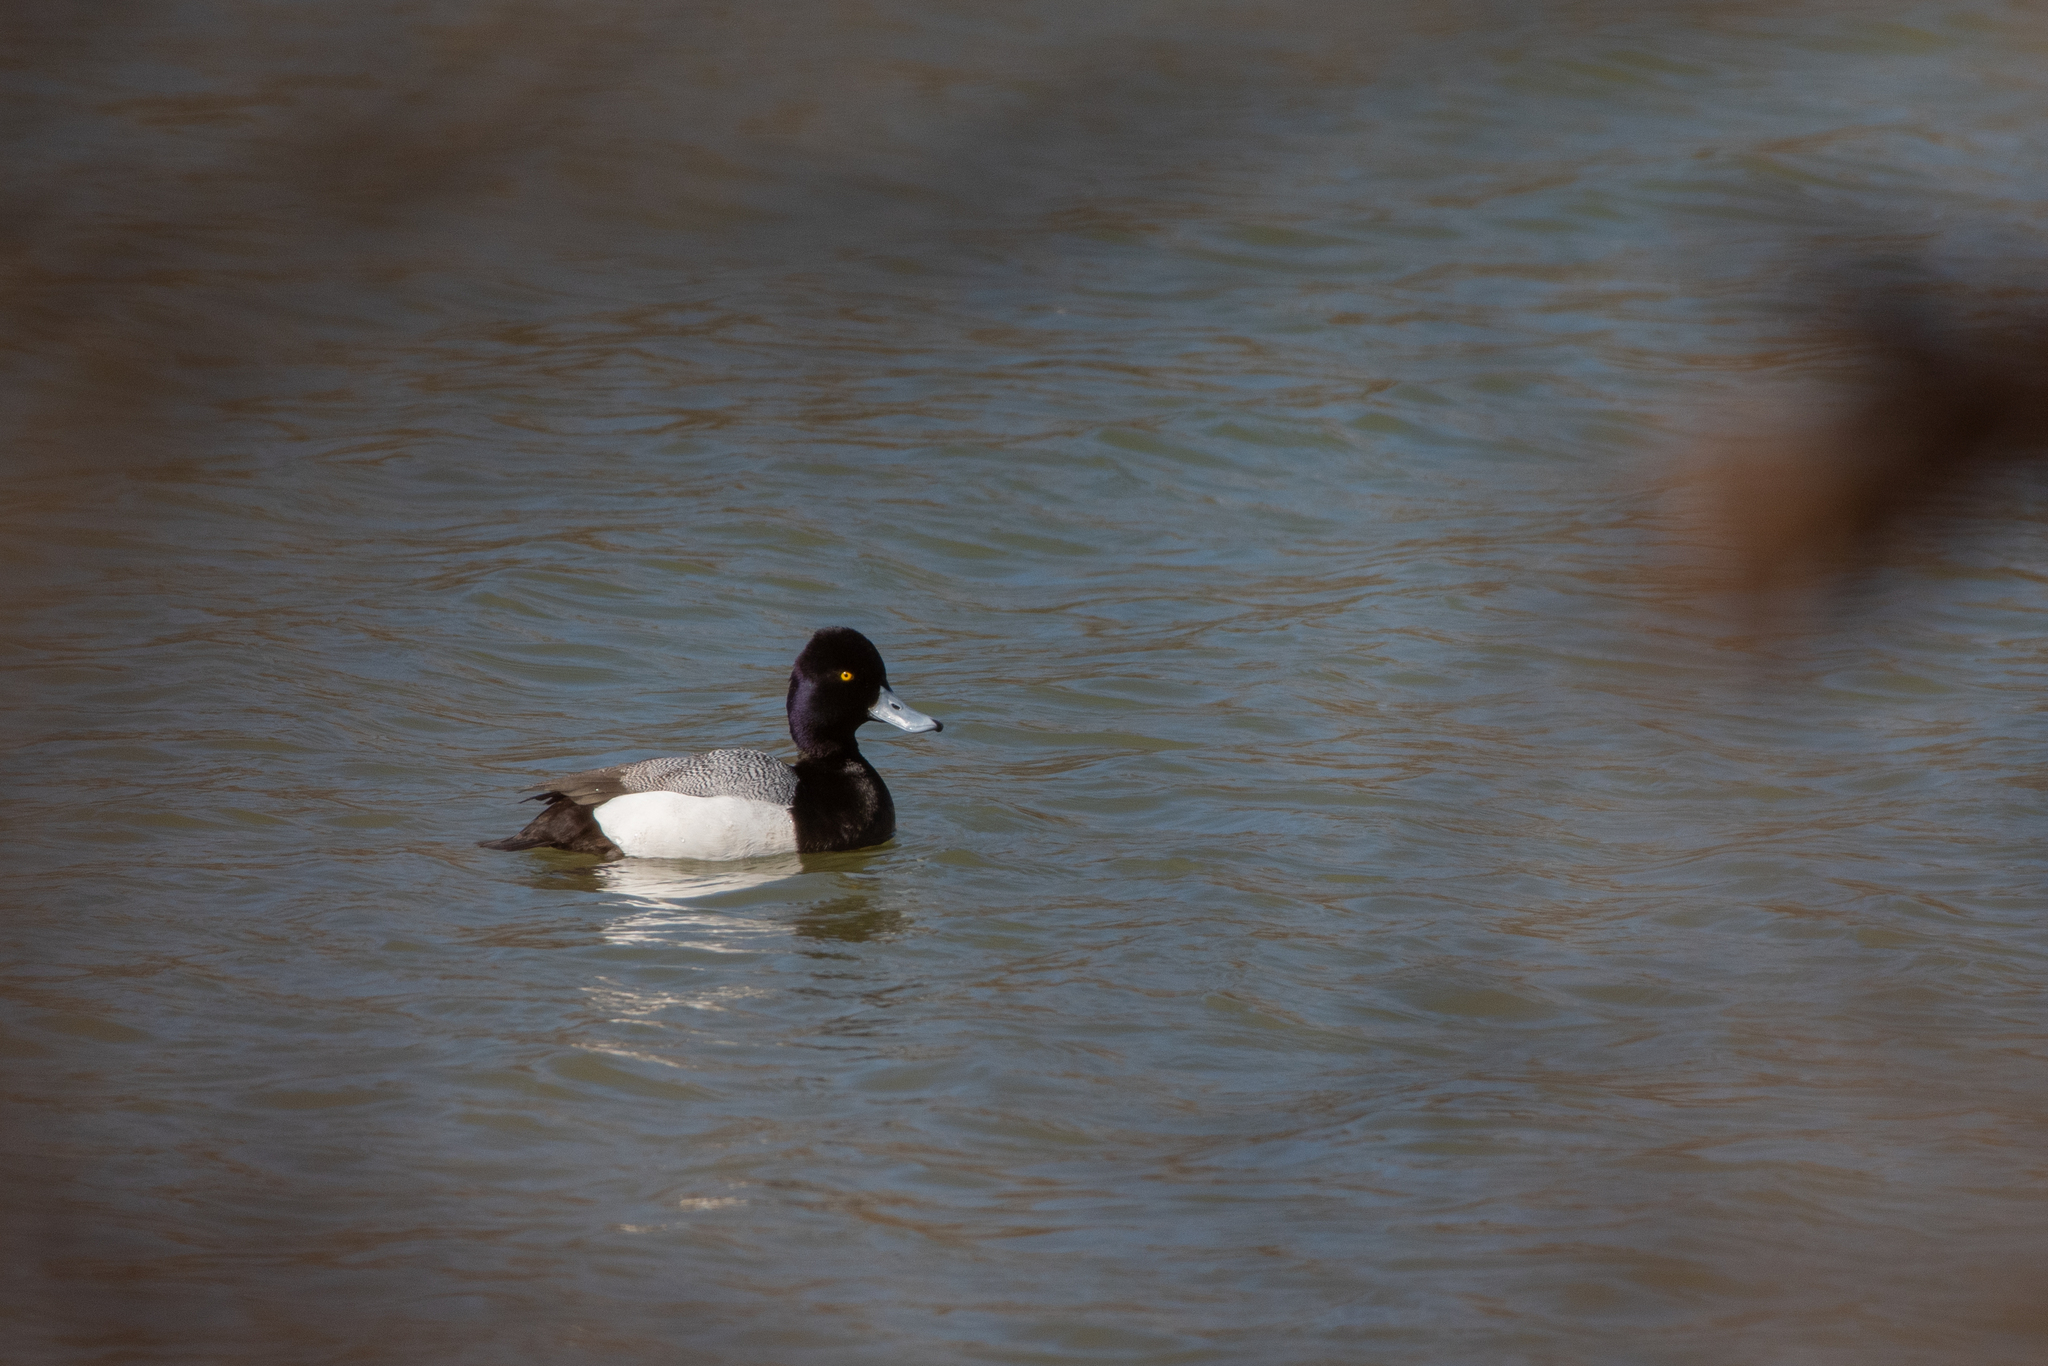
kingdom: Animalia
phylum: Chordata
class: Aves
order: Anseriformes
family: Anatidae
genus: Aythya
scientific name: Aythya affinis
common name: Lesser scaup
